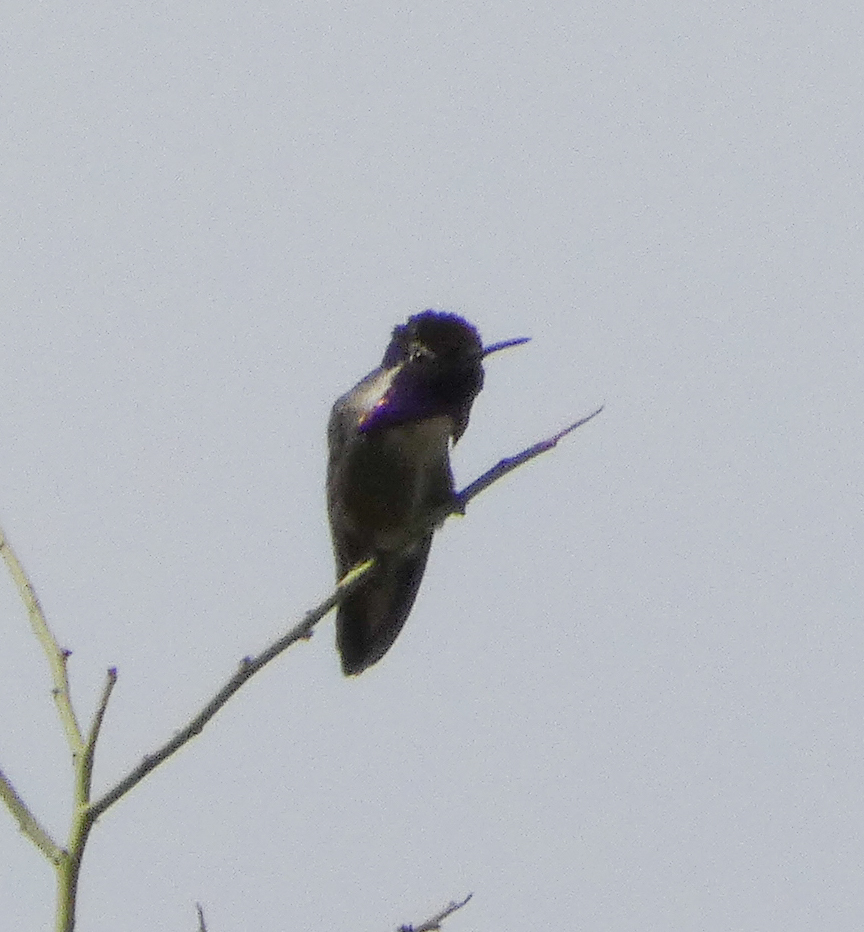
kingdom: Animalia
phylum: Chordata
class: Aves
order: Apodiformes
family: Trochilidae
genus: Calypte
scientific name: Calypte costae
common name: Costa's hummingbird
